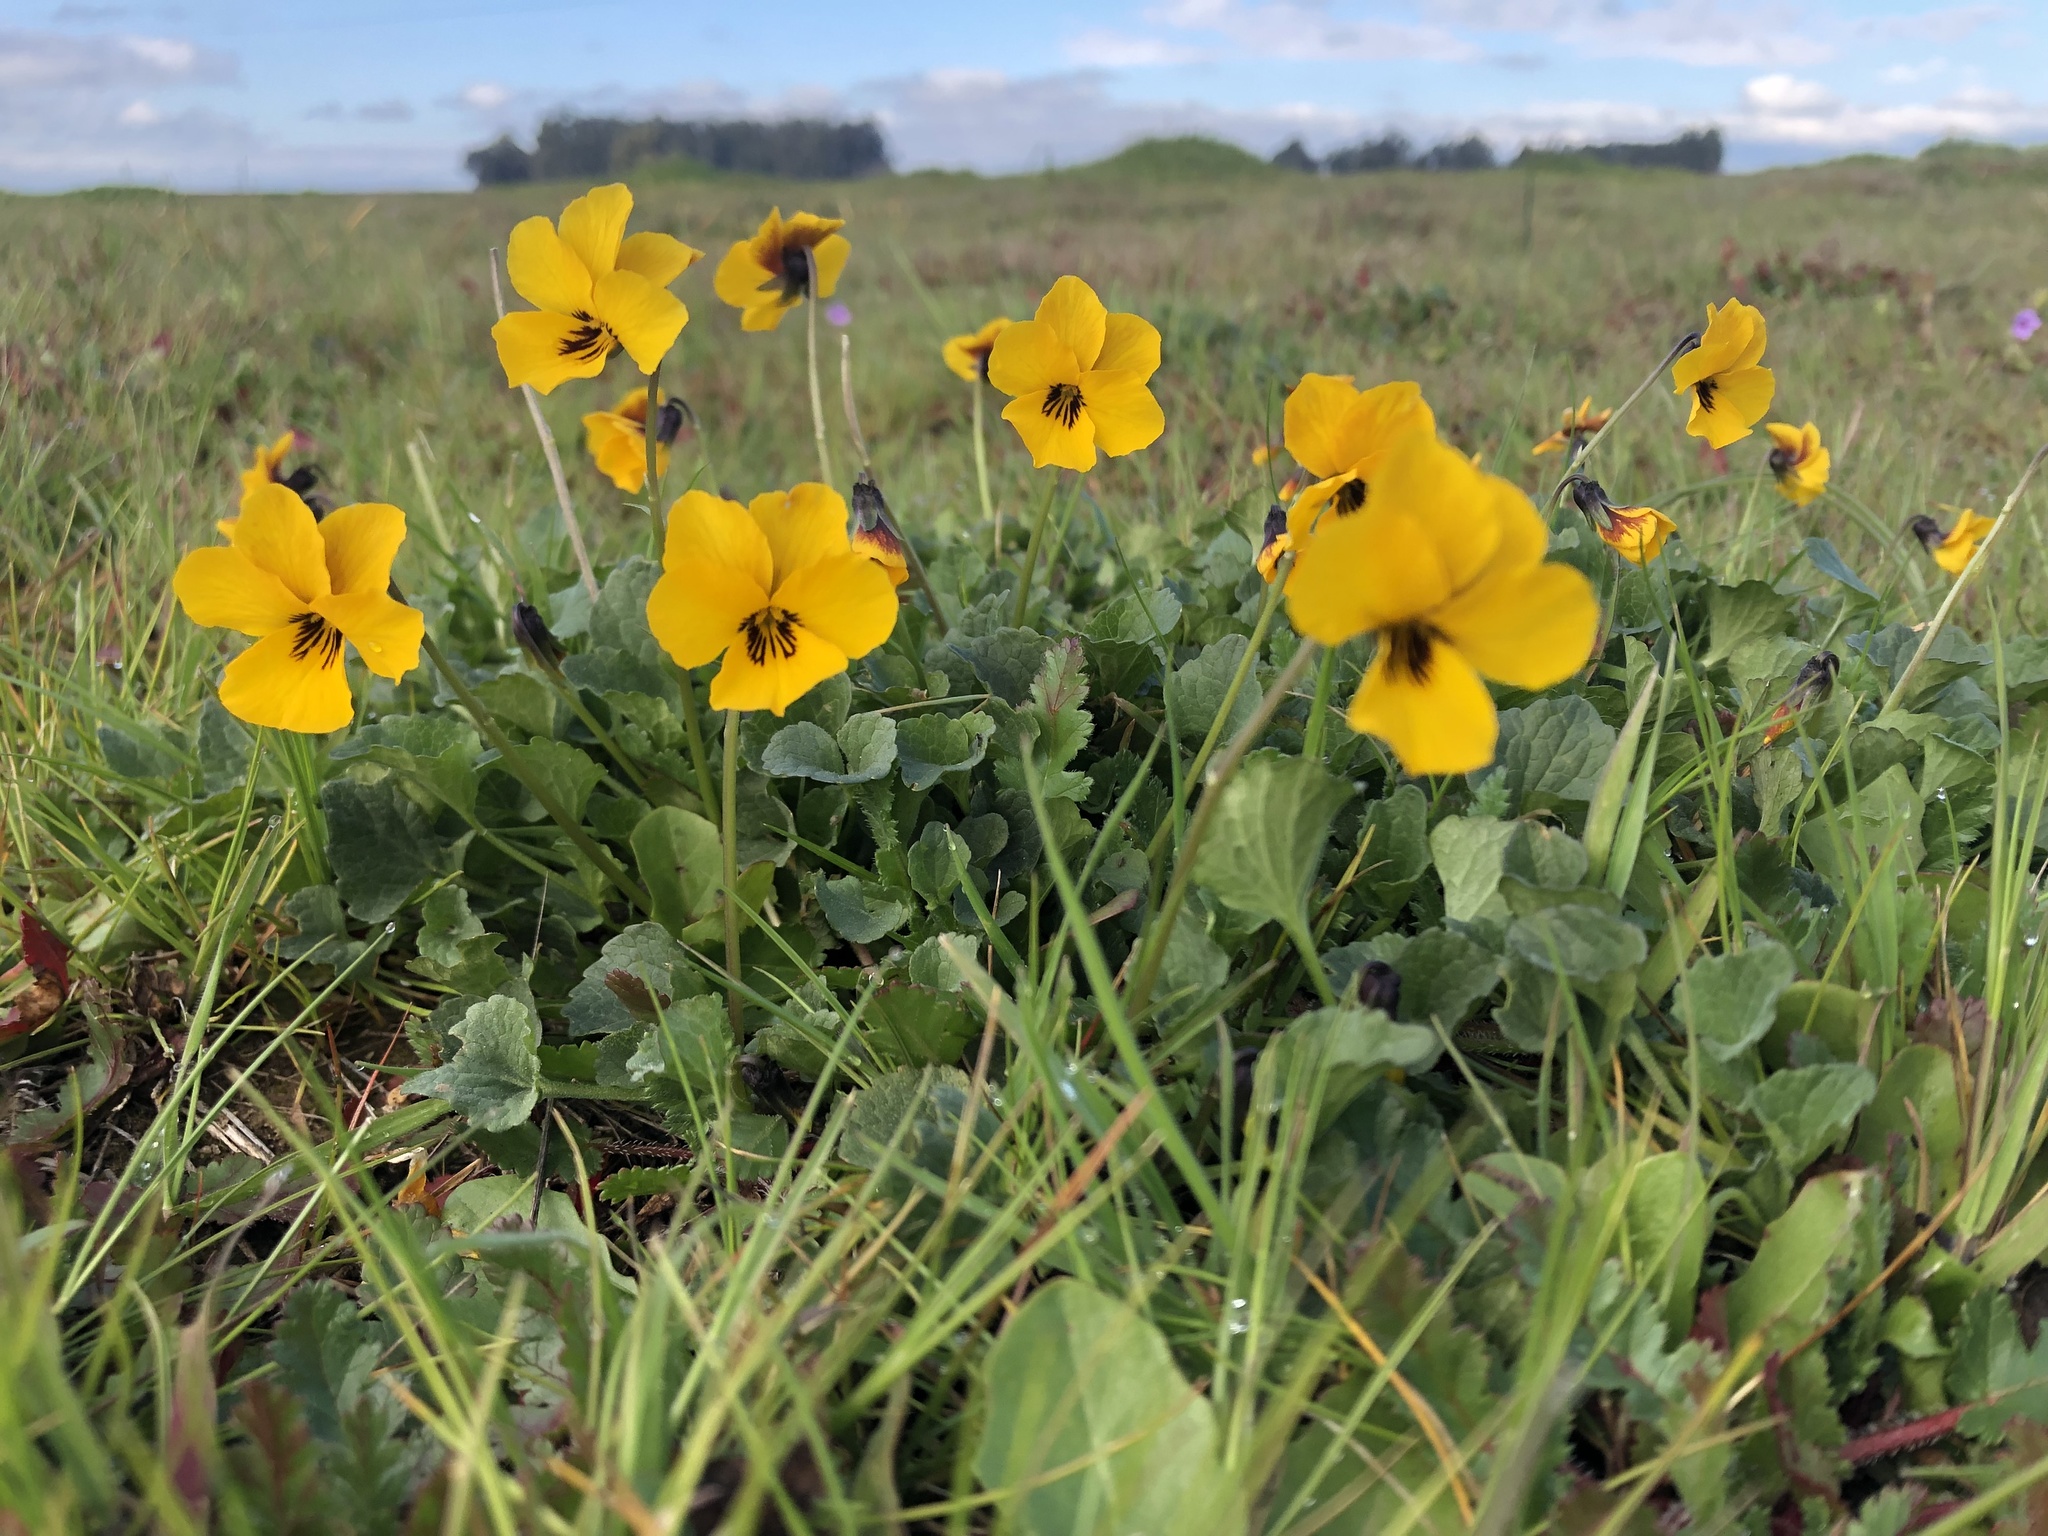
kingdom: Plantae
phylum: Tracheophyta
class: Magnoliopsida
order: Malpighiales
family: Violaceae
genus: Viola
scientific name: Viola pedunculata
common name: California golden violet
